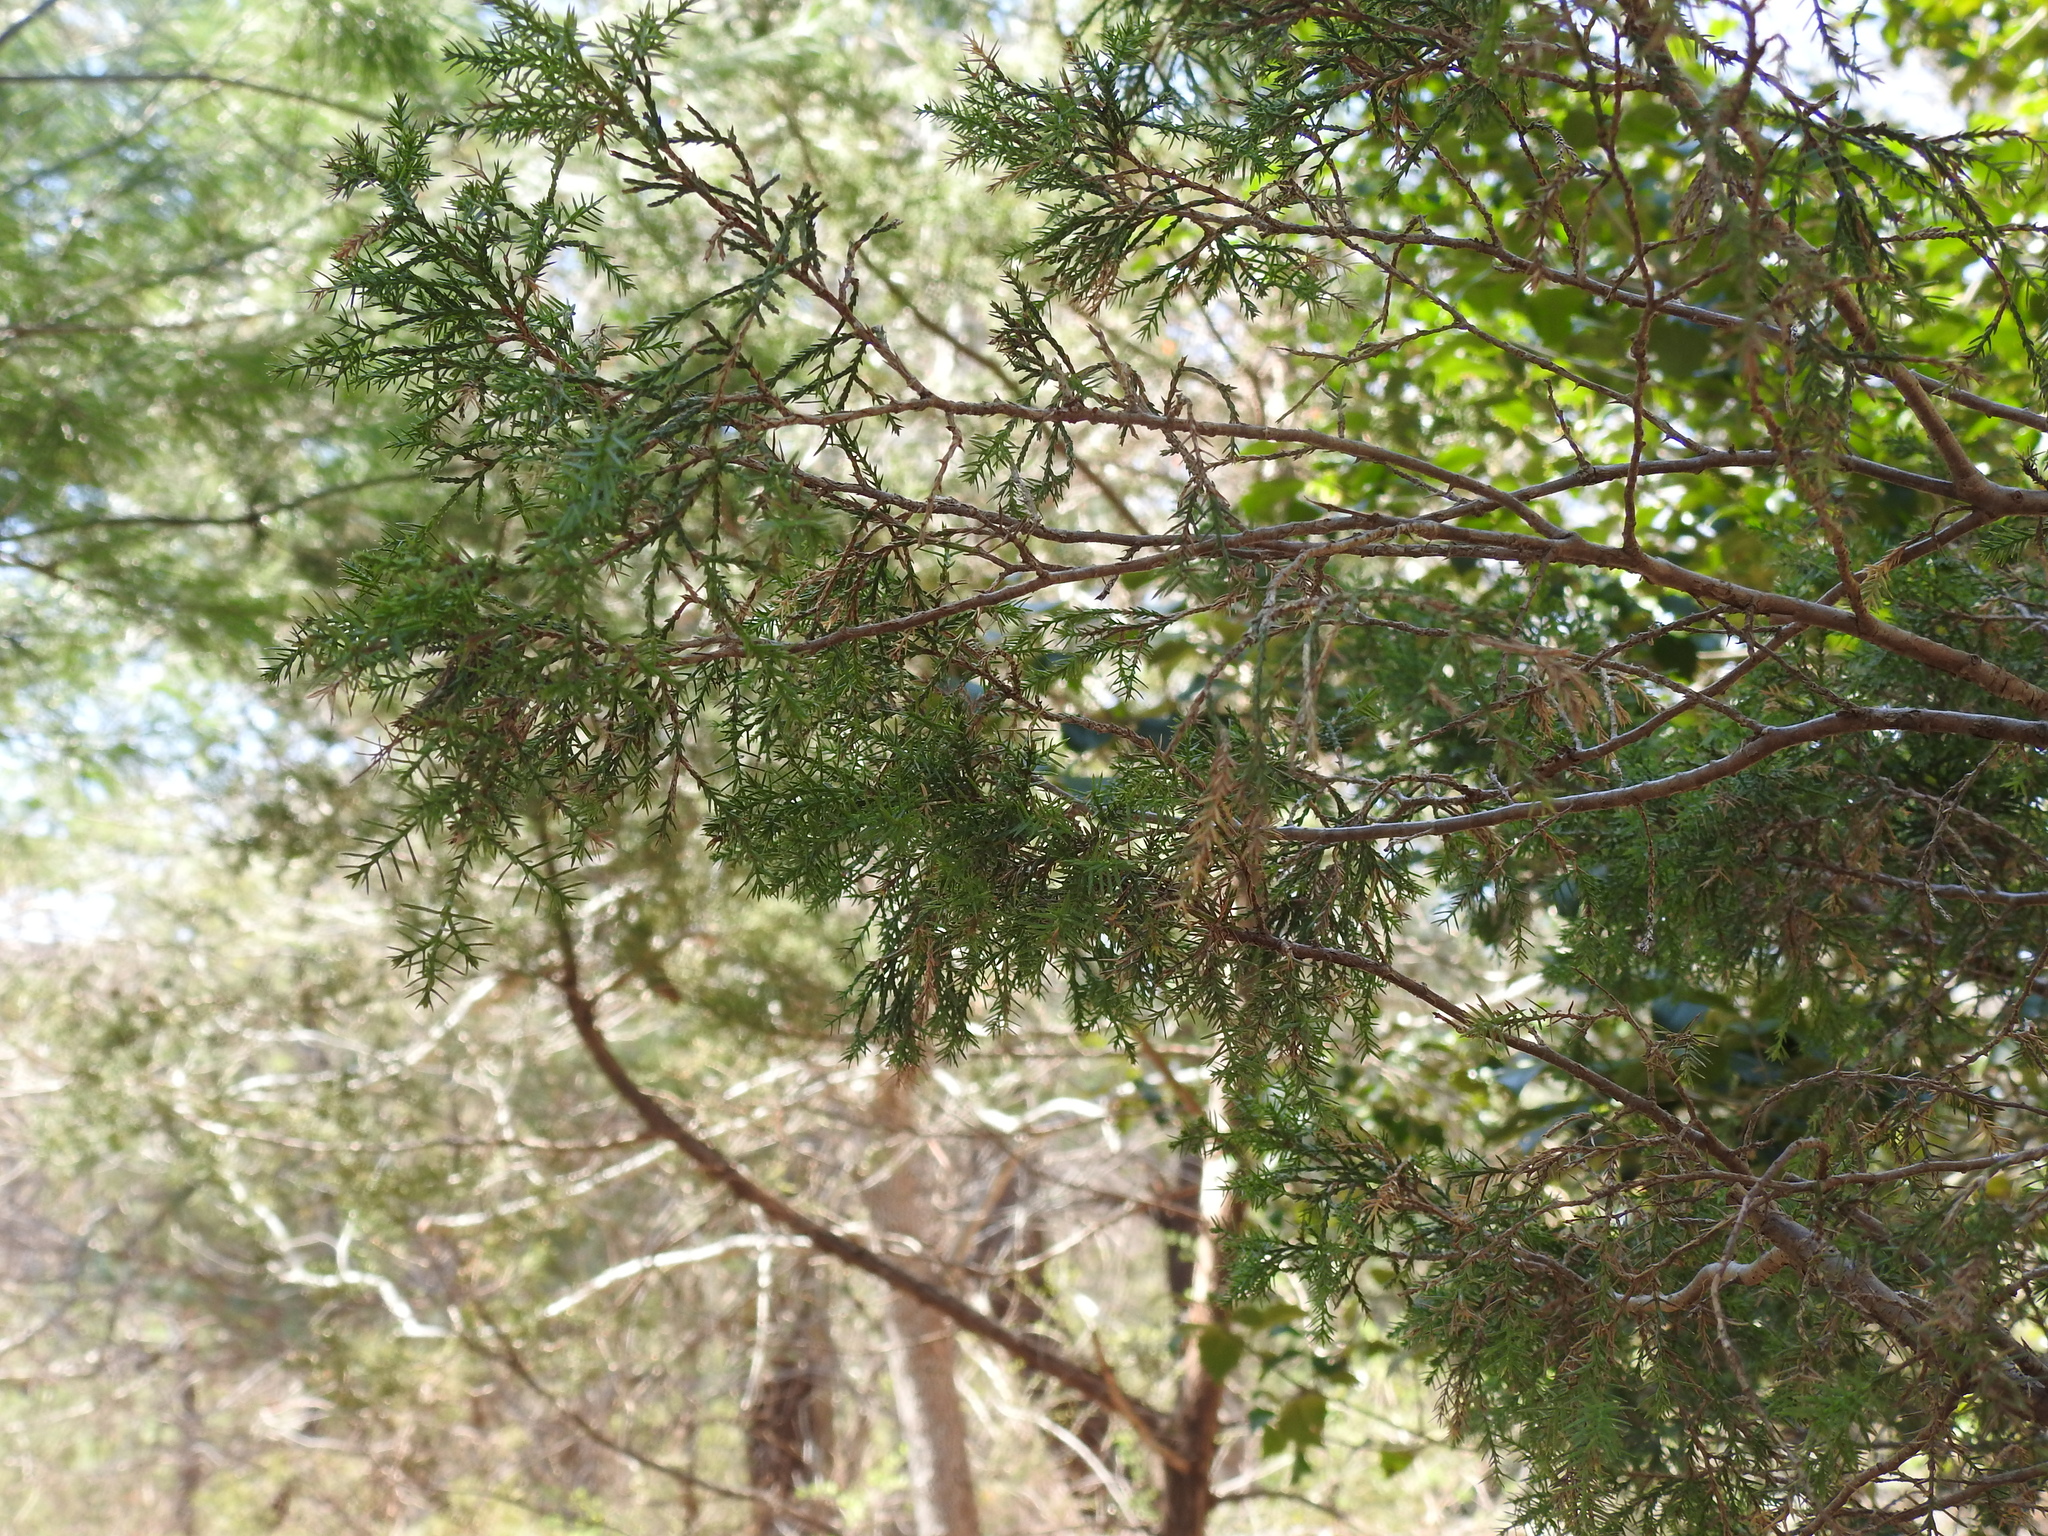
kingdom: Plantae
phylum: Tracheophyta
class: Pinopsida
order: Pinales
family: Cupressaceae
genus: Juniperus
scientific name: Juniperus communis
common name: Common juniper
